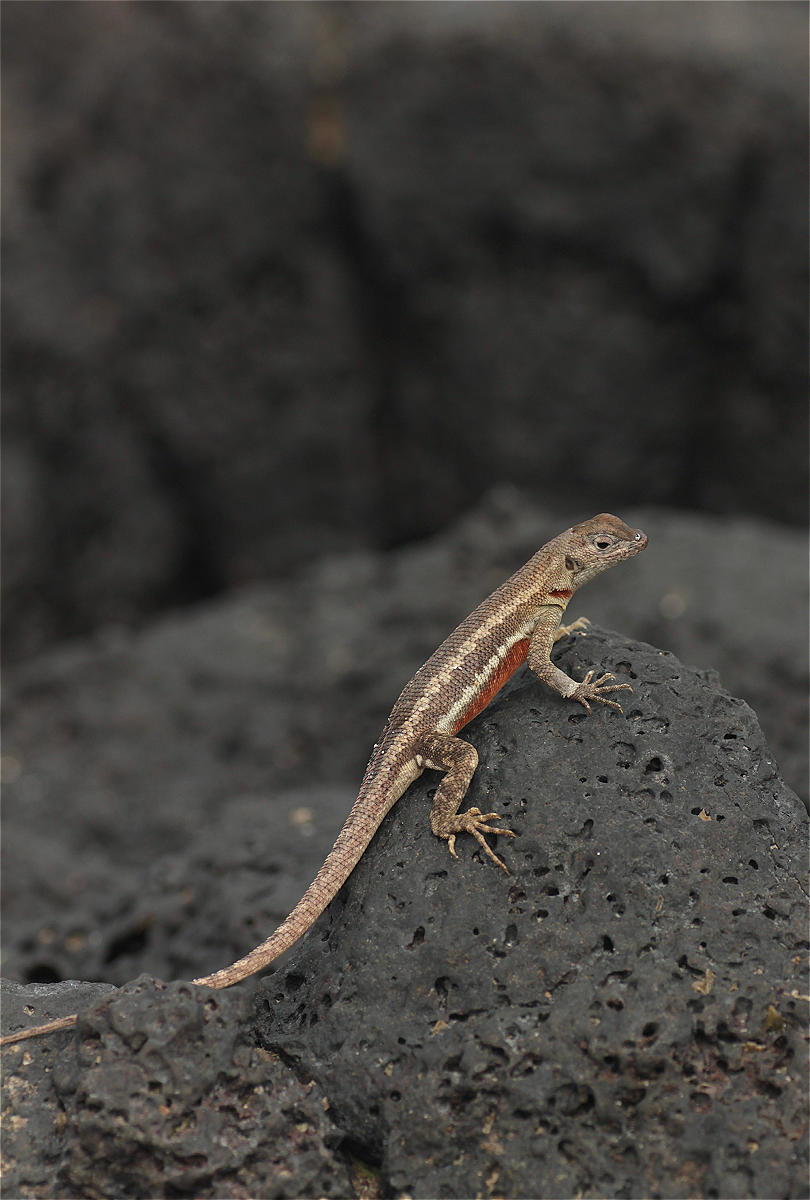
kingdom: Animalia
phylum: Chordata
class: Squamata
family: Tropiduridae
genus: Microlophus
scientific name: Microlophus bivittatus
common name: San cristobal lava lizard
